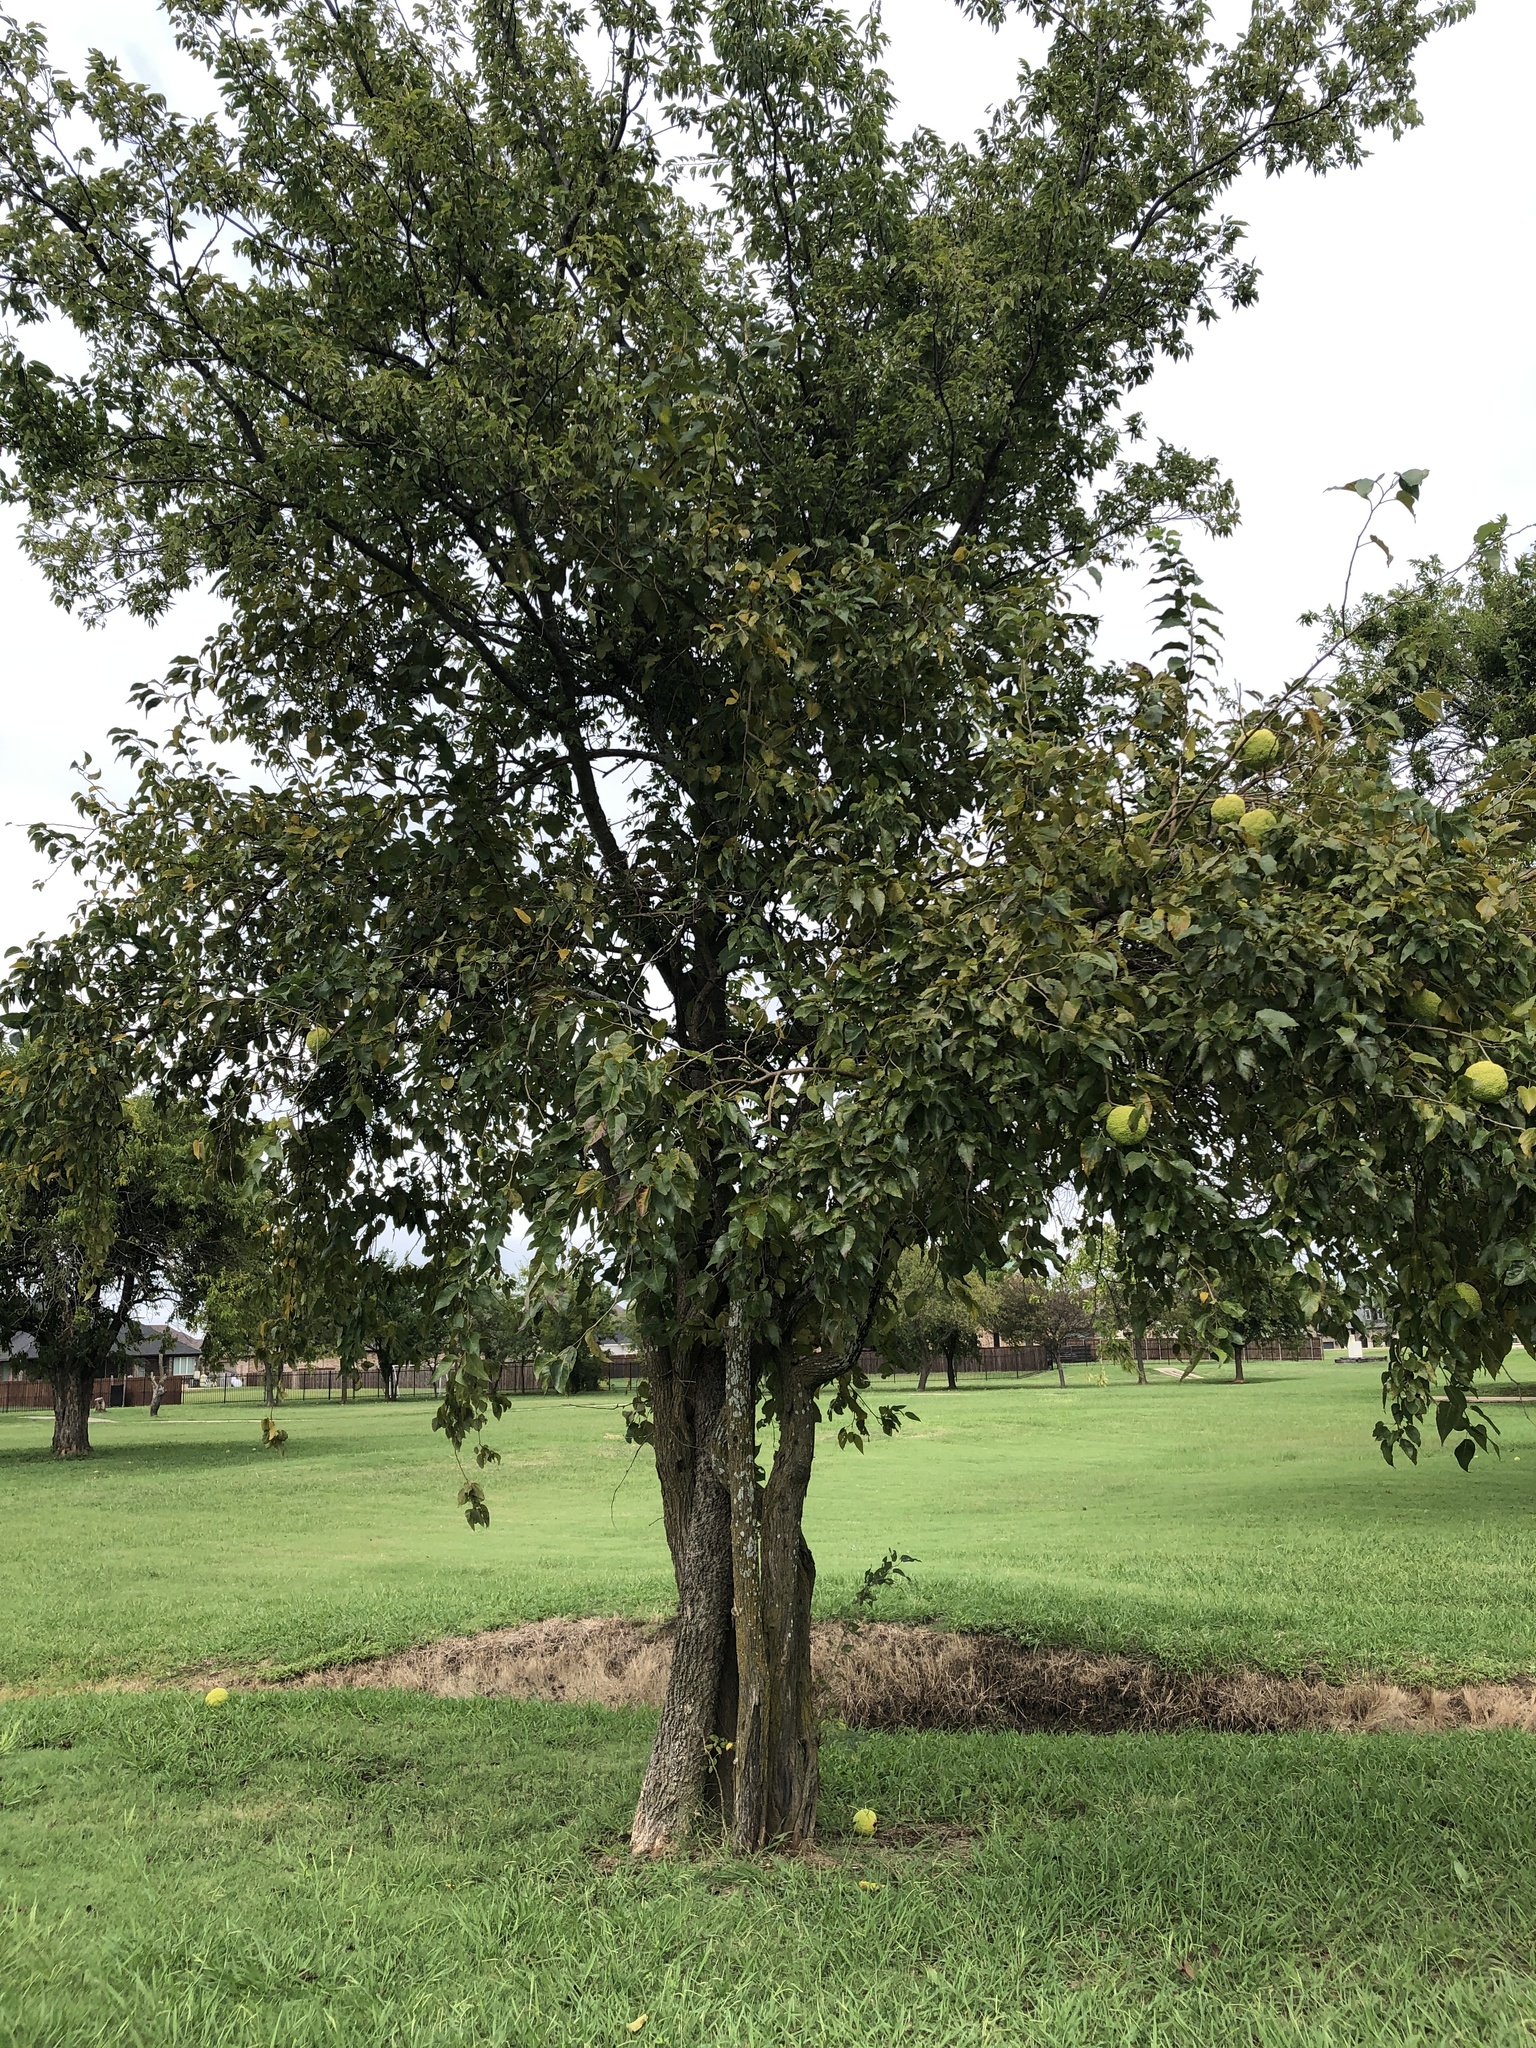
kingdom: Plantae
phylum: Tracheophyta
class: Magnoliopsida
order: Rosales
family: Moraceae
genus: Maclura
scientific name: Maclura pomifera
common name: Osage-orange
